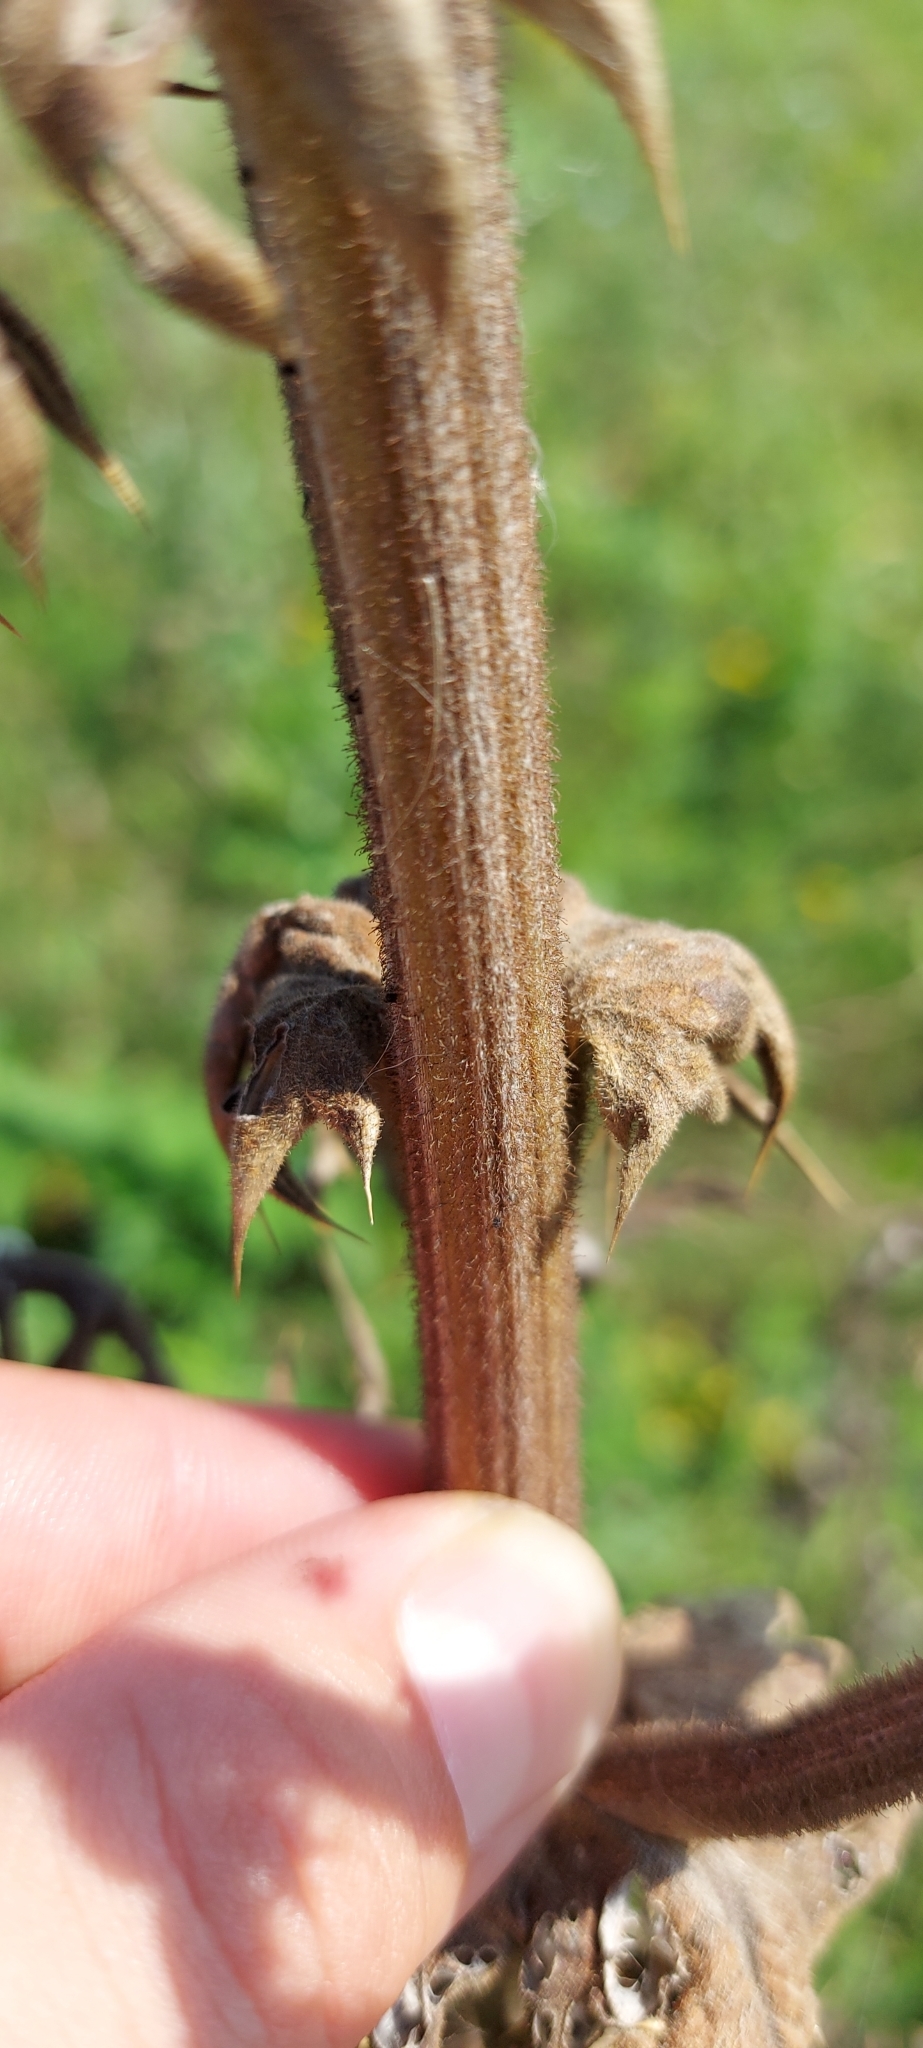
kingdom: Plantae
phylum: Tracheophyta
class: Magnoliopsida
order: Asterales
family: Asteraceae
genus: Echinops
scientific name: Echinops sphaerocephalus
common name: Glandular globe-thistle
